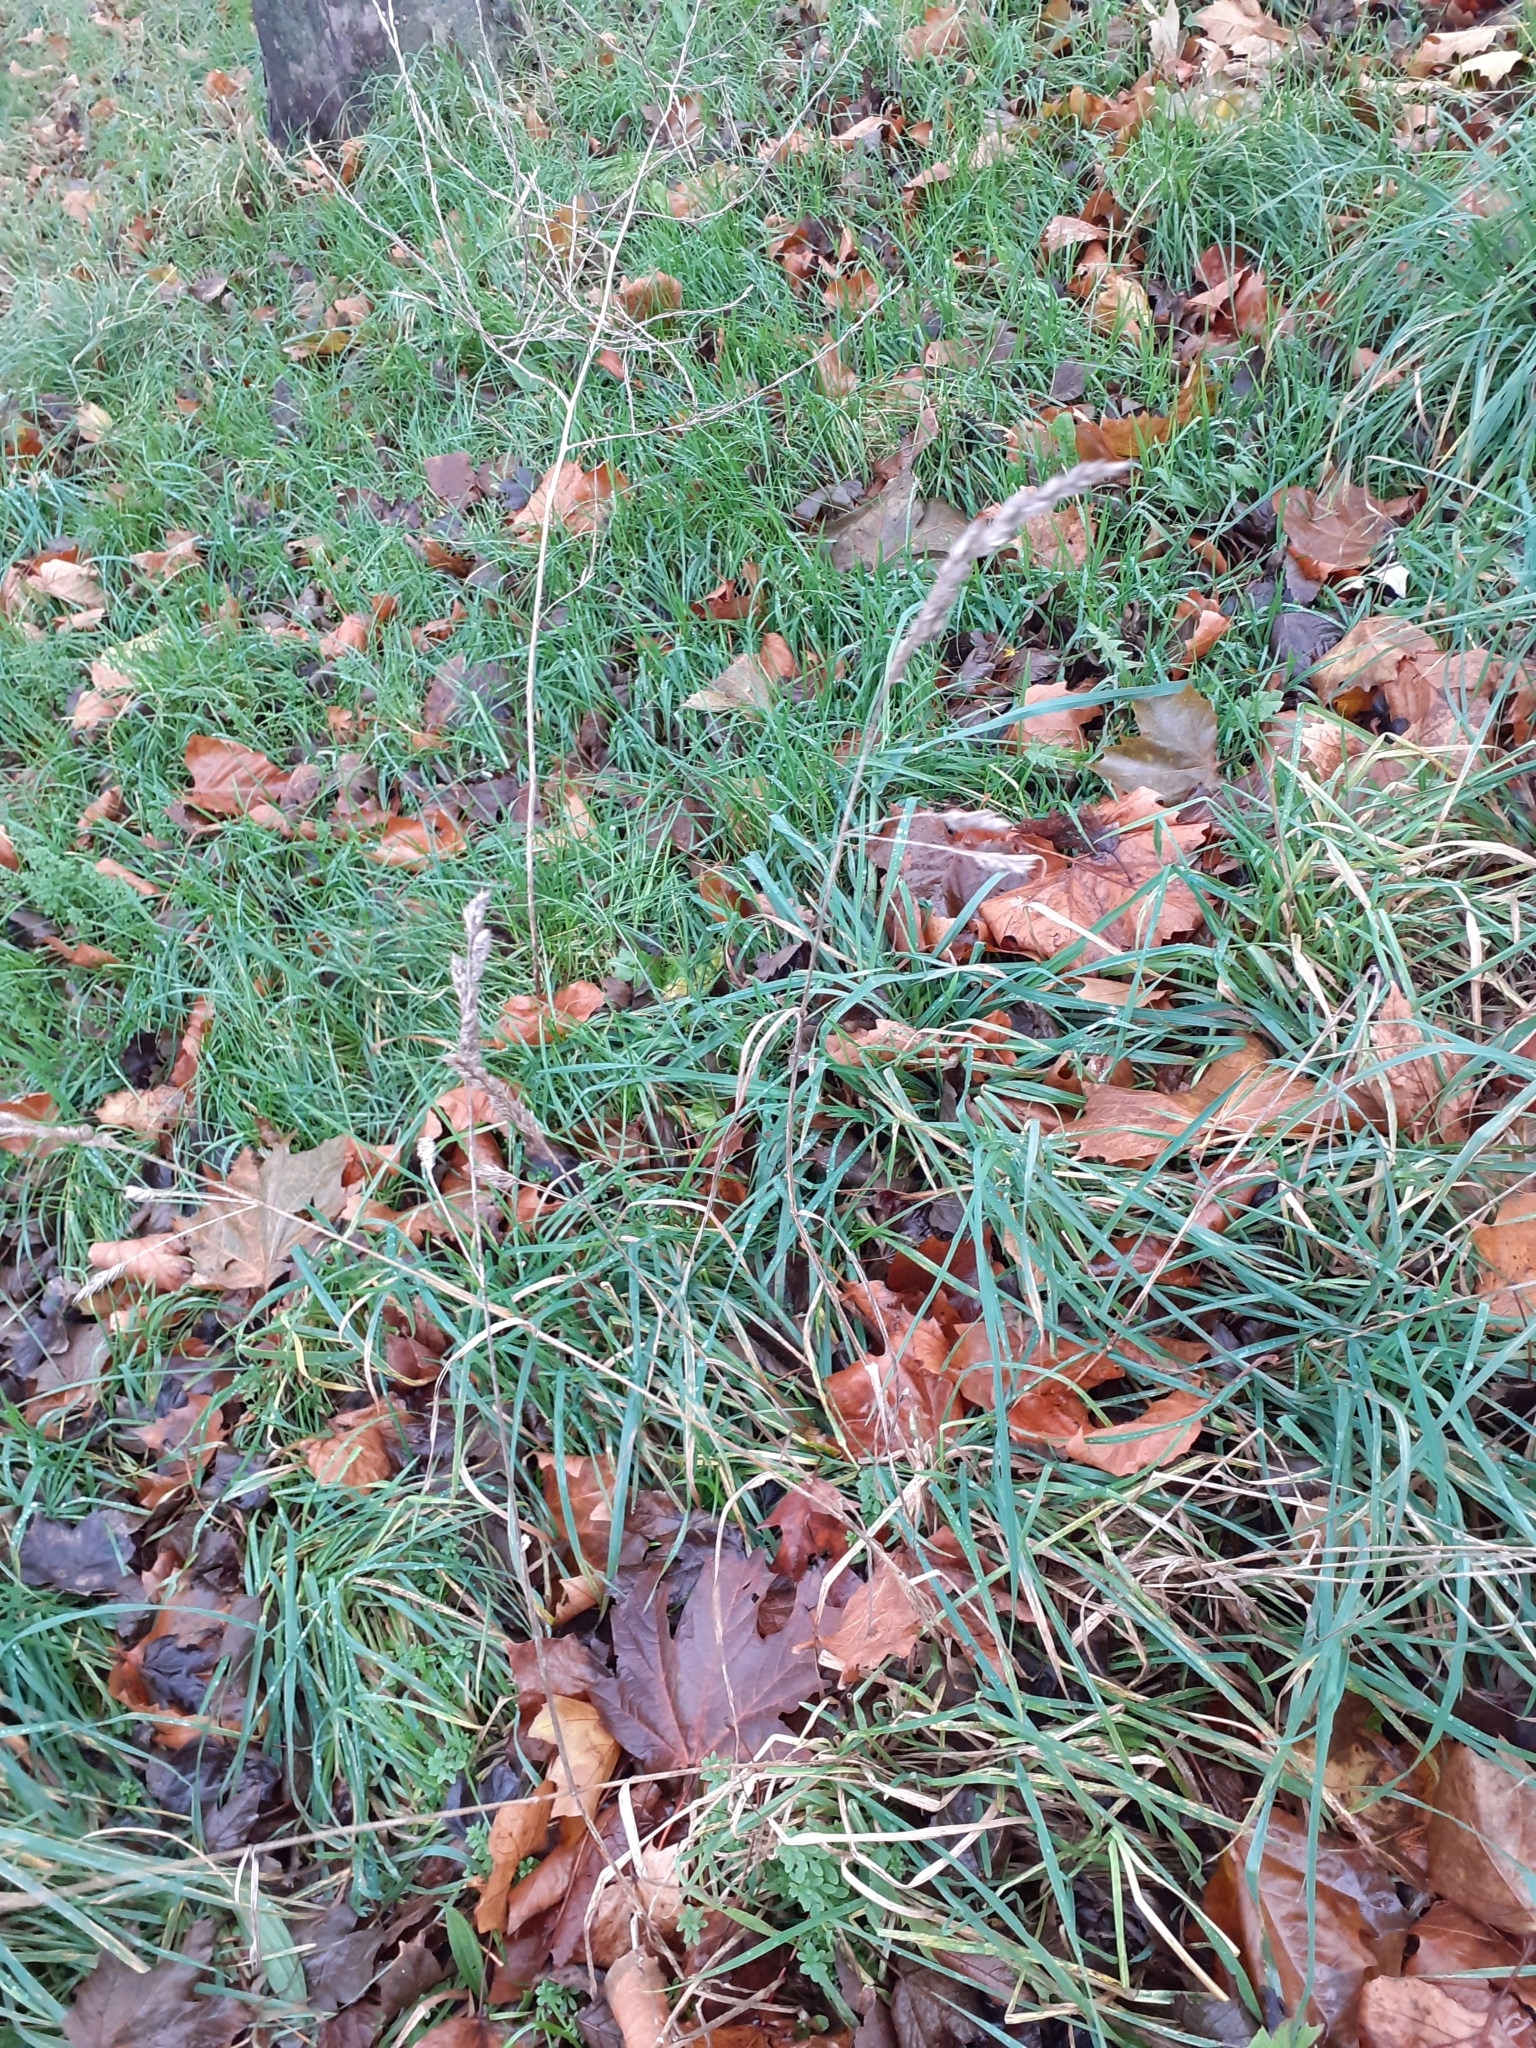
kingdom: Plantae
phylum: Tracheophyta
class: Liliopsida
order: Poales
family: Poaceae
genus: Dactylis
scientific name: Dactylis glomerata
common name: Orchardgrass
